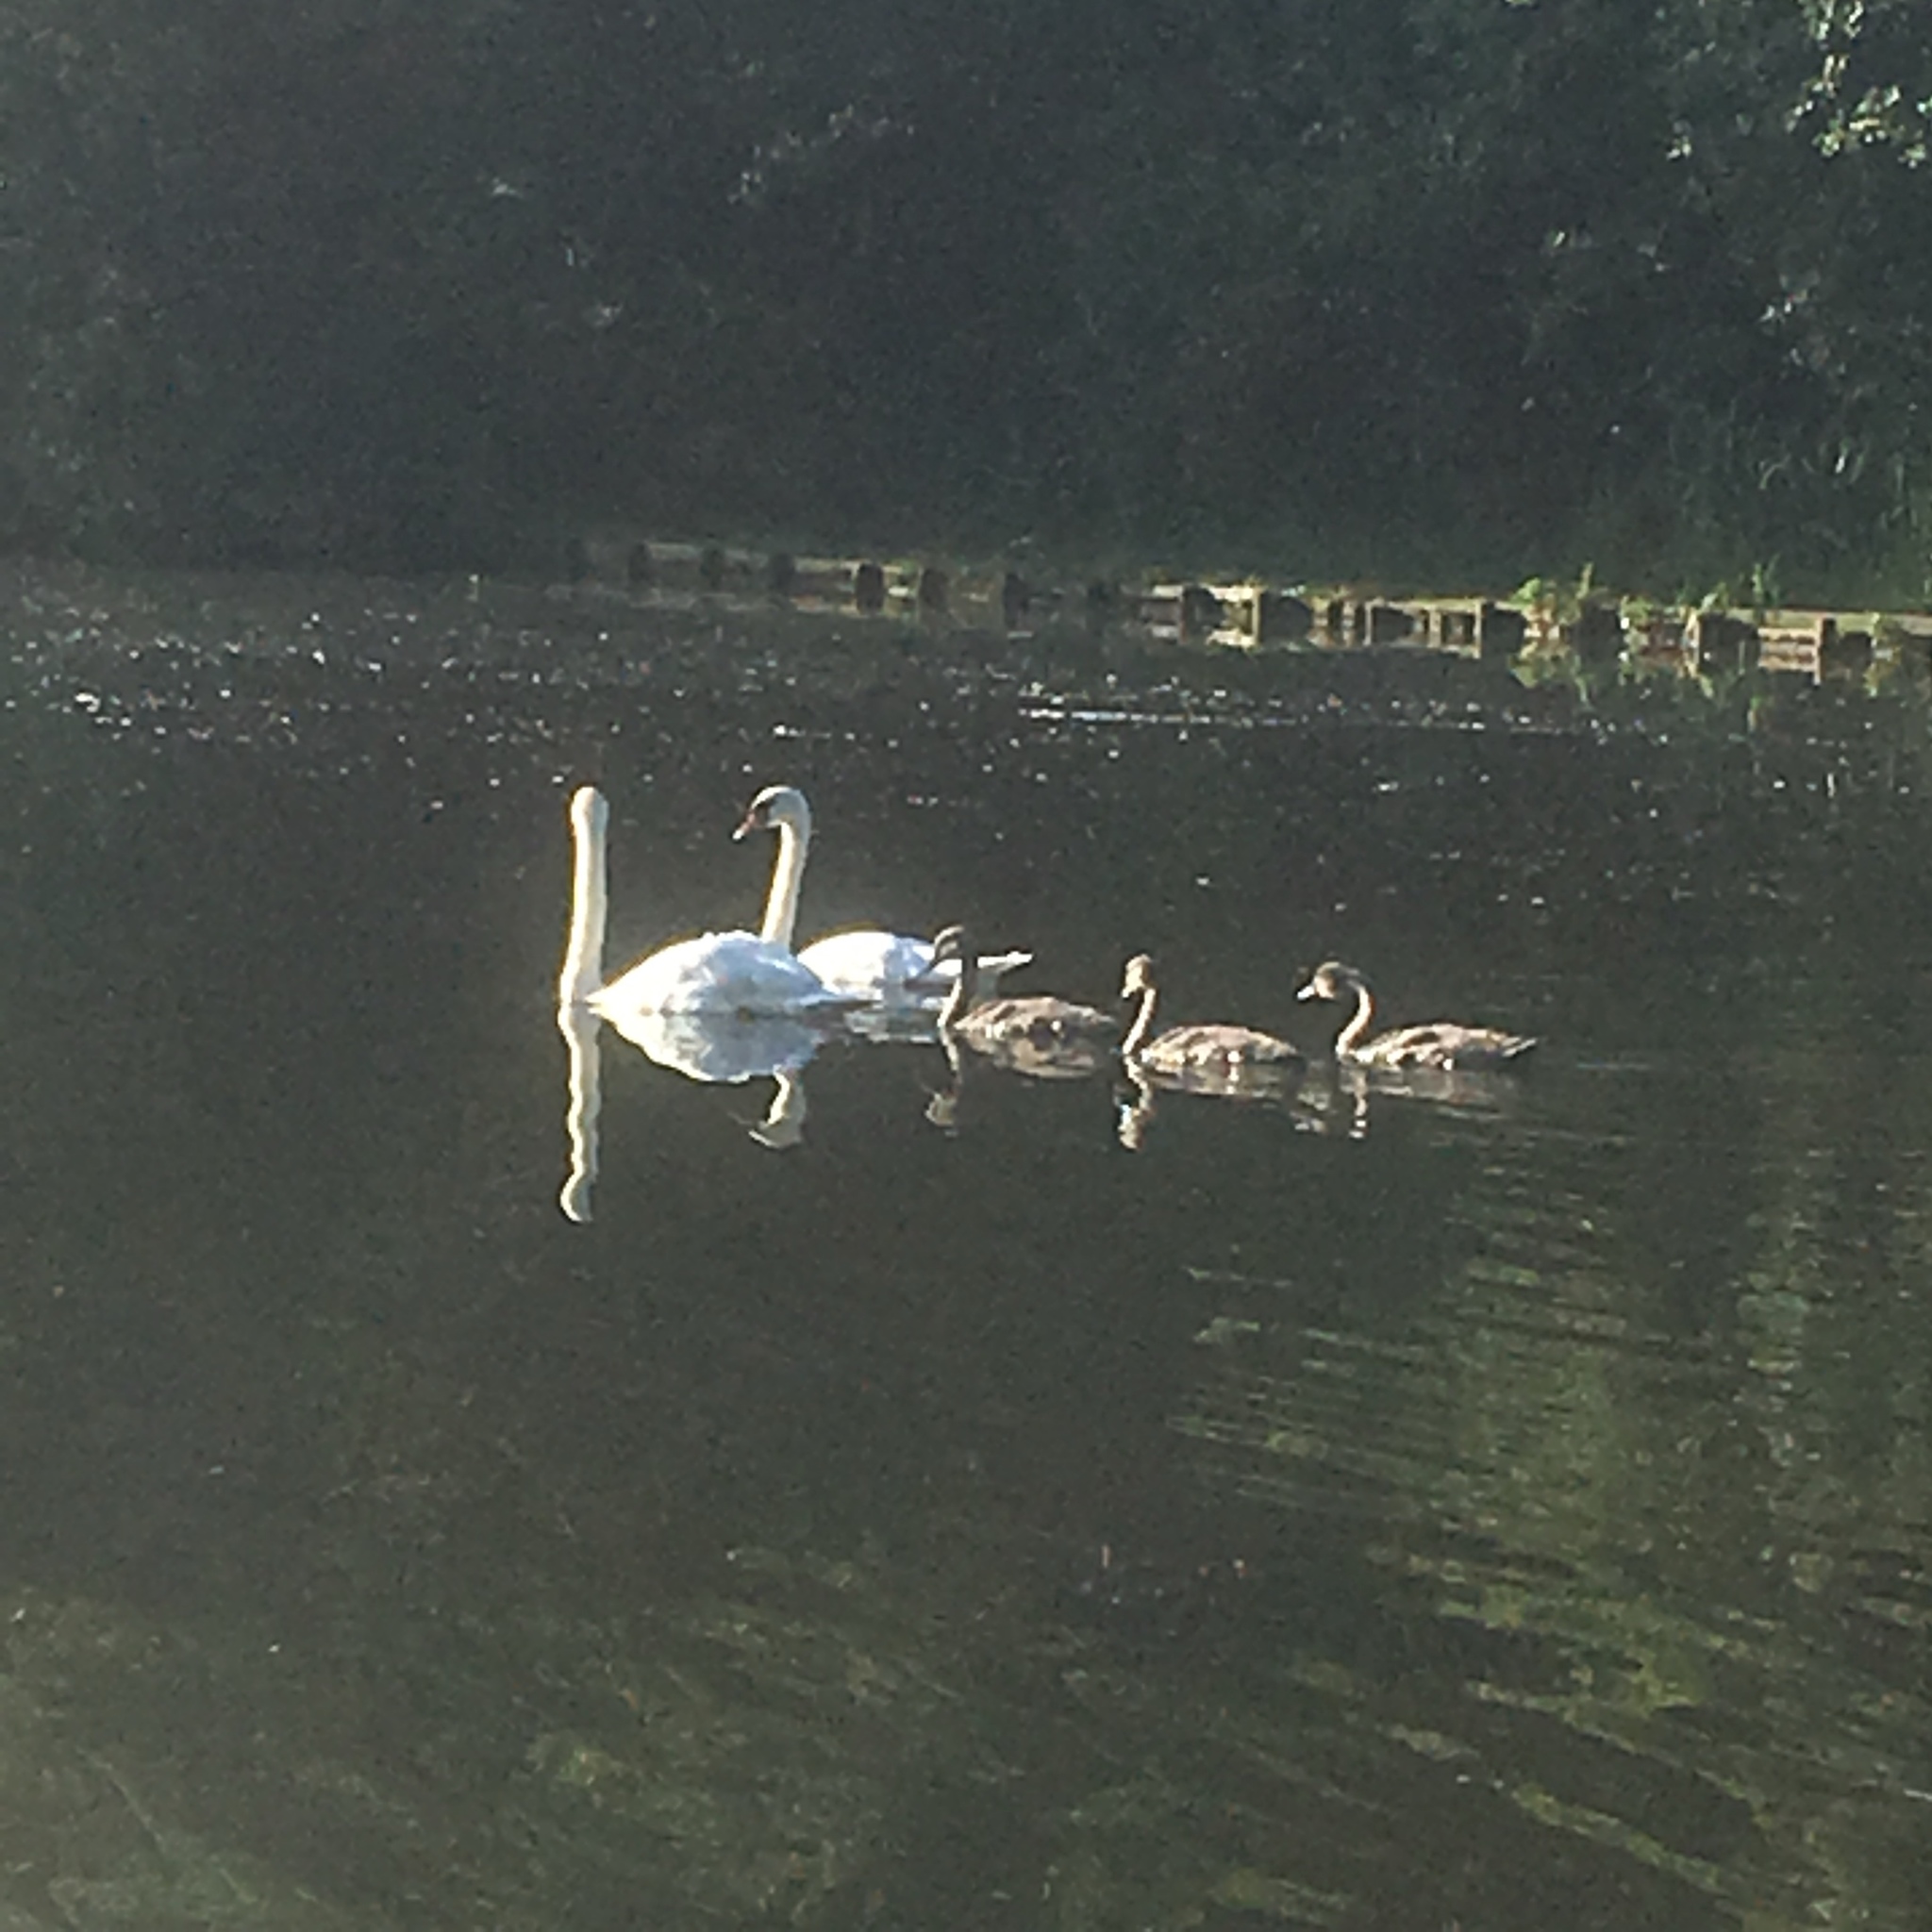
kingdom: Animalia
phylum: Chordata
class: Aves
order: Anseriformes
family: Anatidae
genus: Cygnus
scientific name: Cygnus olor
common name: Mute swan
